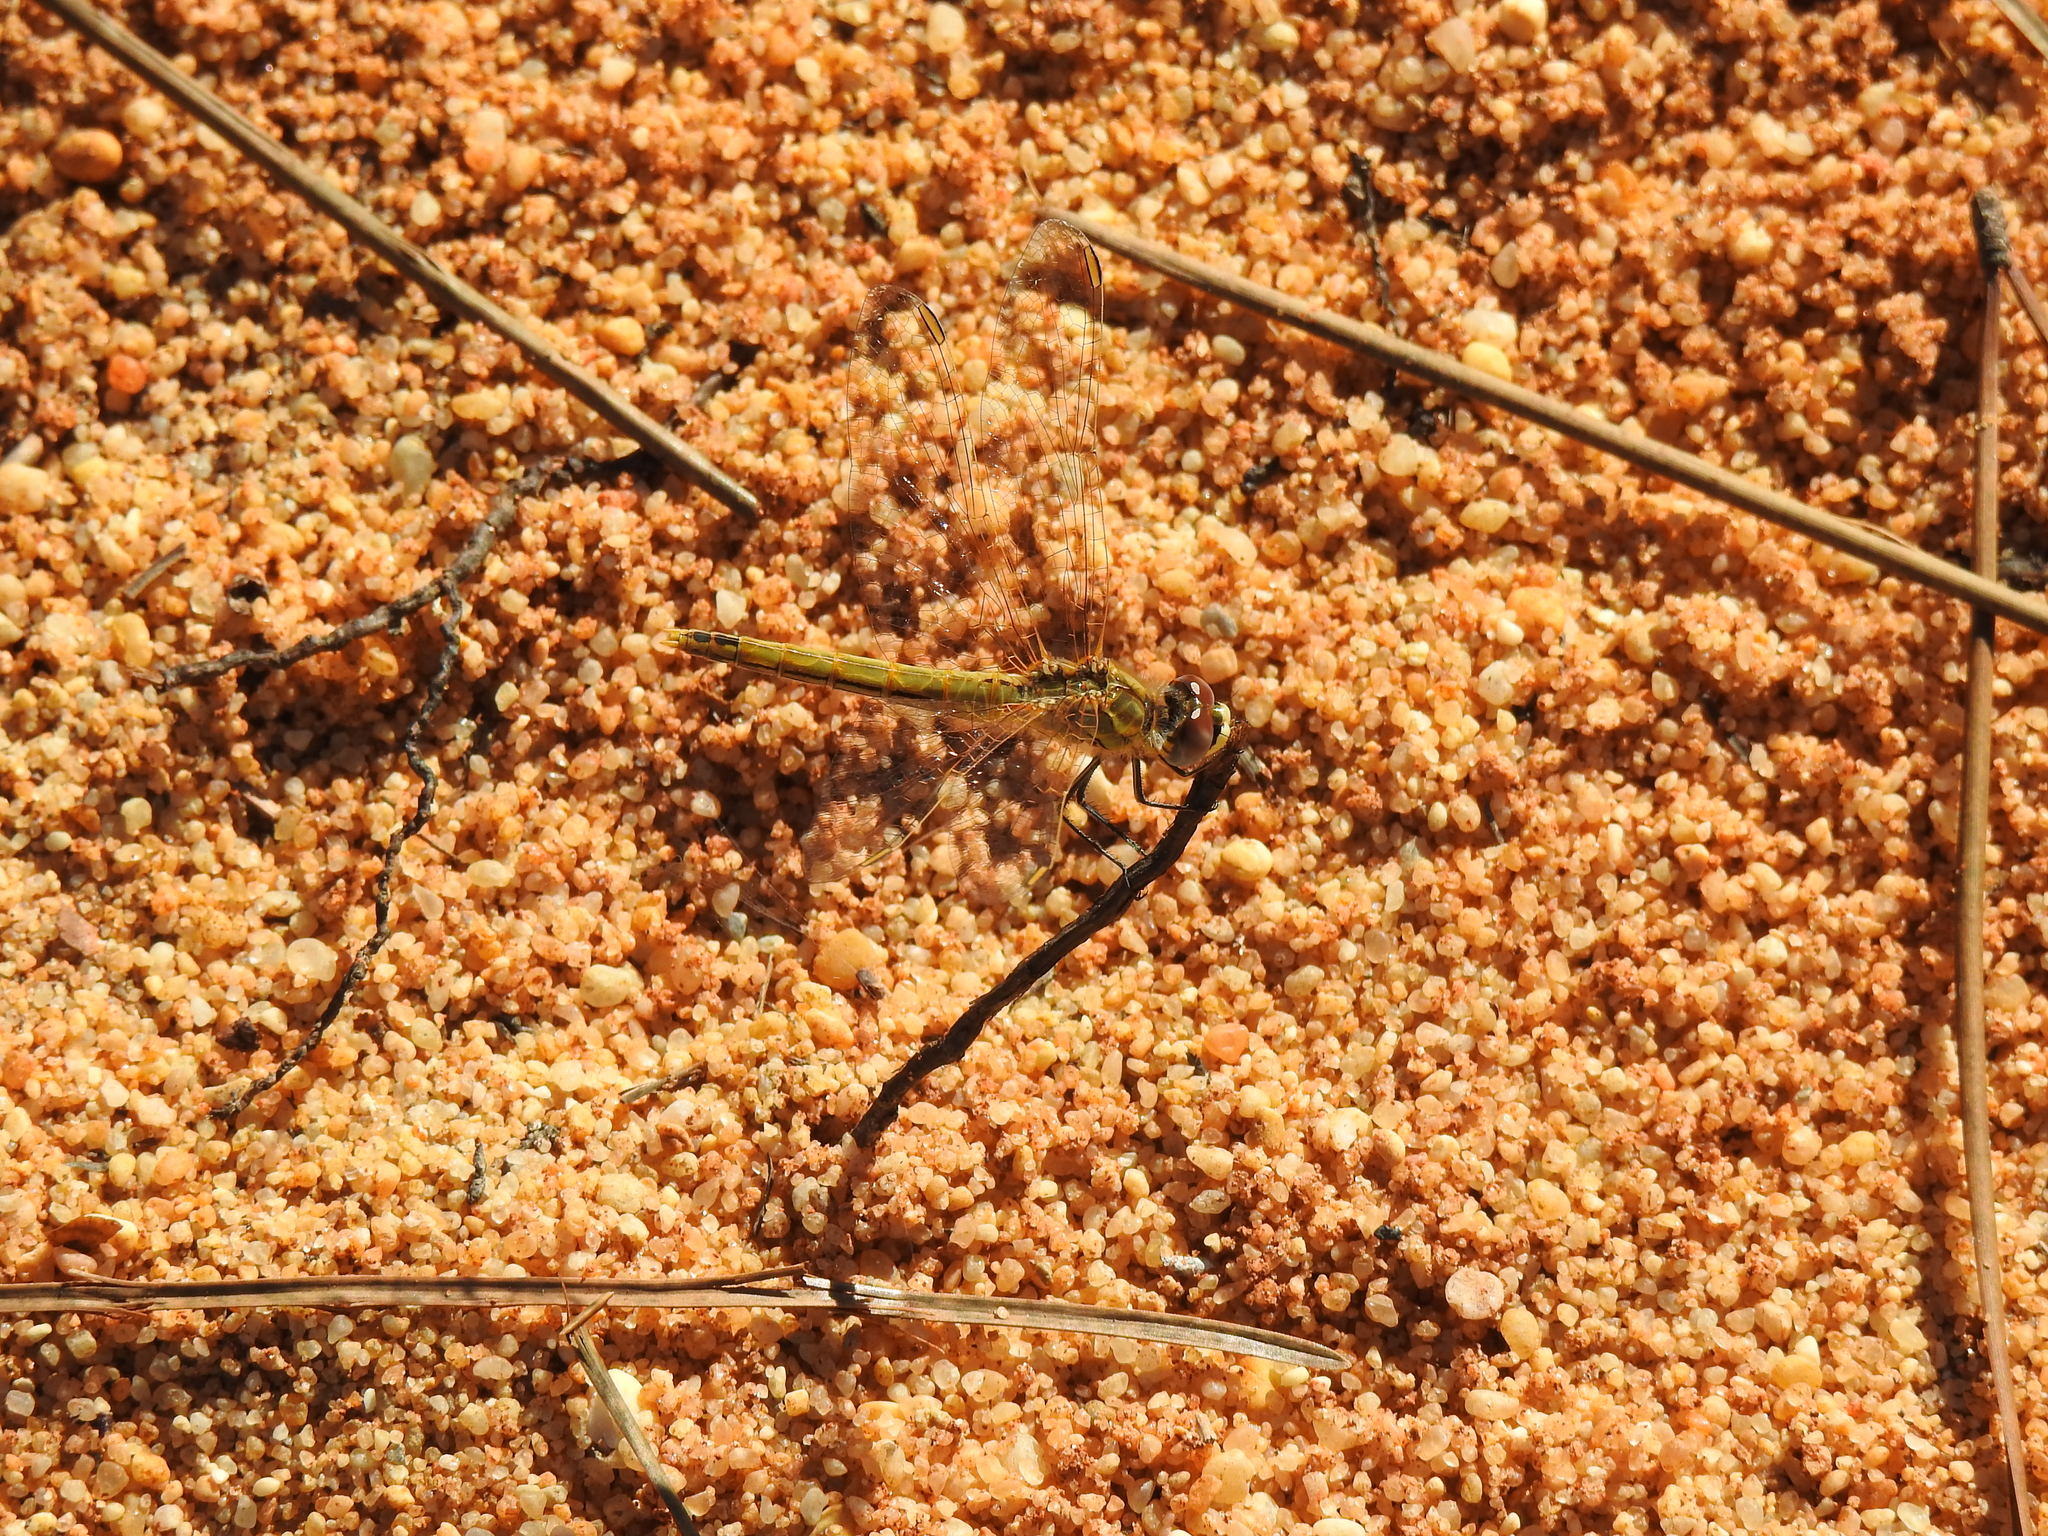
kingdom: Animalia
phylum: Arthropoda
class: Insecta
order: Odonata
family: Libellulidae
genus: Sympetrum
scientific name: Sympetrum fonscolombii
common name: Red-veined darter
